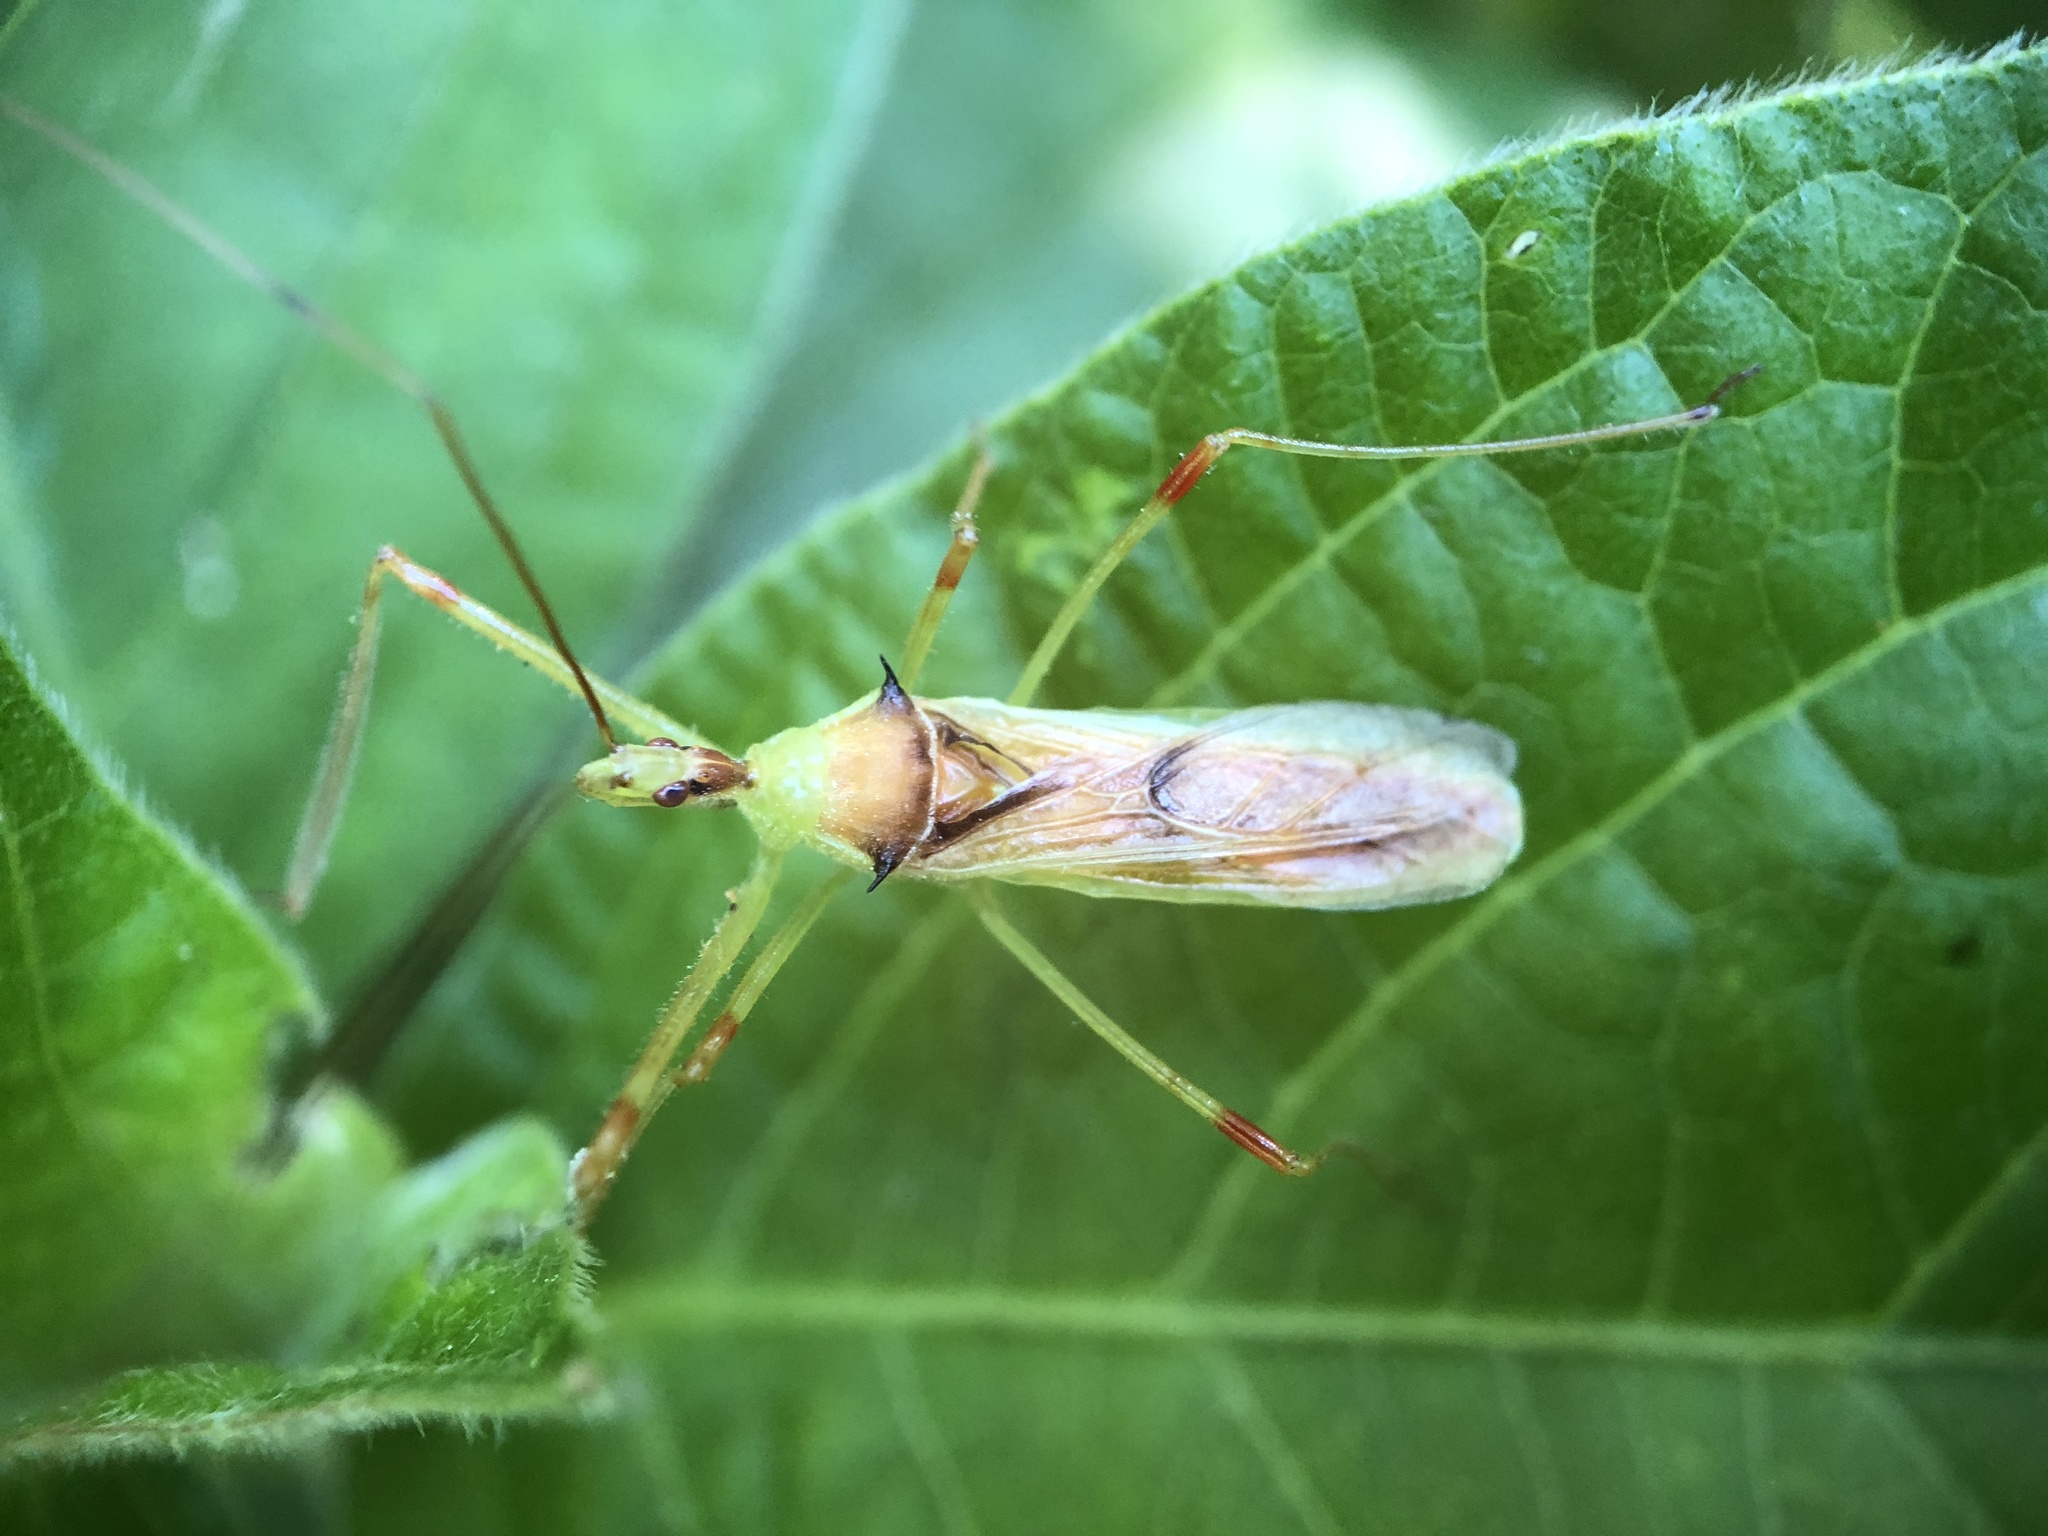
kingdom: Animalia
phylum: Arthropoda
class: Insecta
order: Hemiptera
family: Reduviidae
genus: Zelus
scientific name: Zelus luridus
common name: Pale green assassin bug
